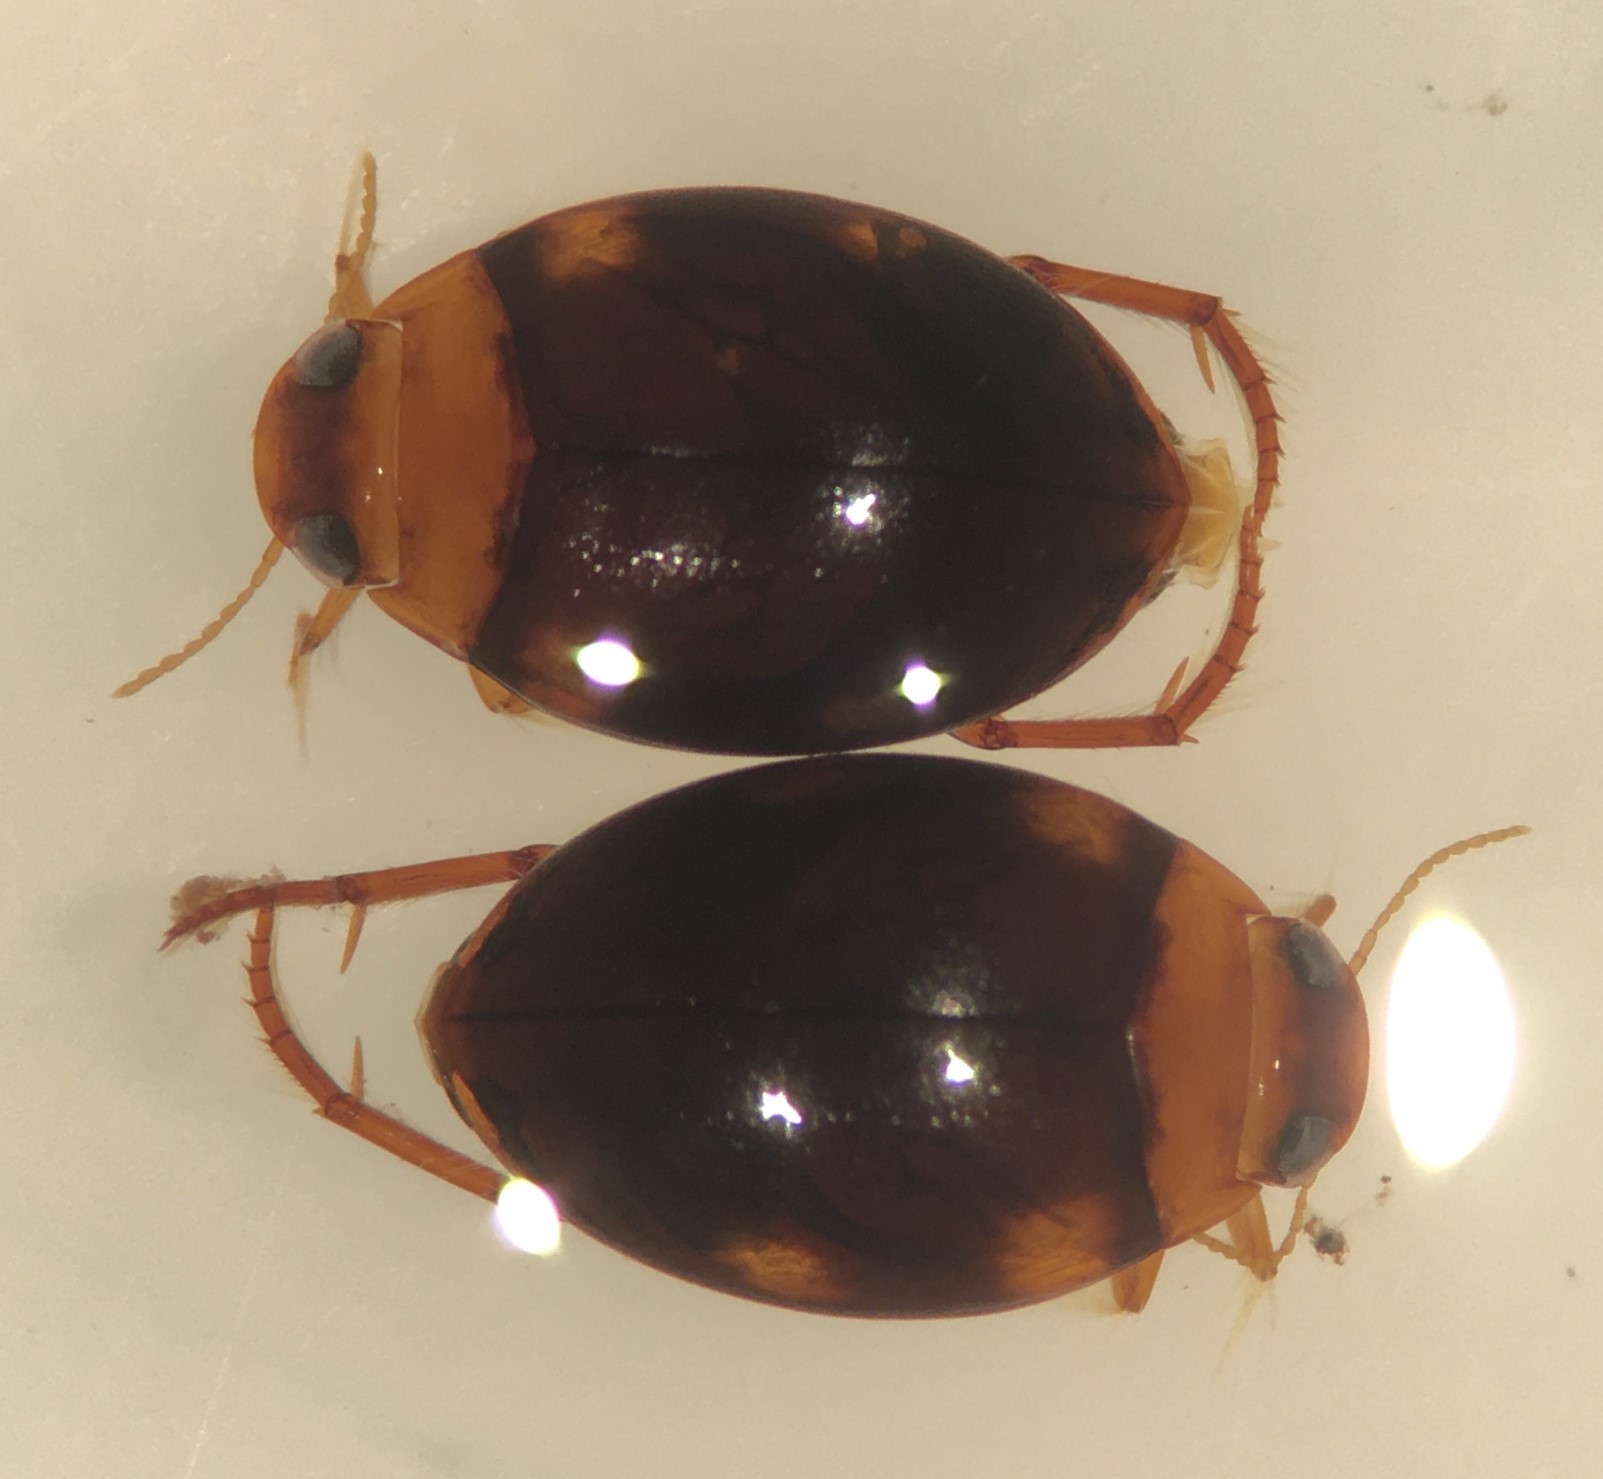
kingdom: Animalia
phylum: Arthropoda
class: Insecta
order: Coleoptera
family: Dytiscidae
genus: Pachydrus
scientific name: Pachydrus princeps
